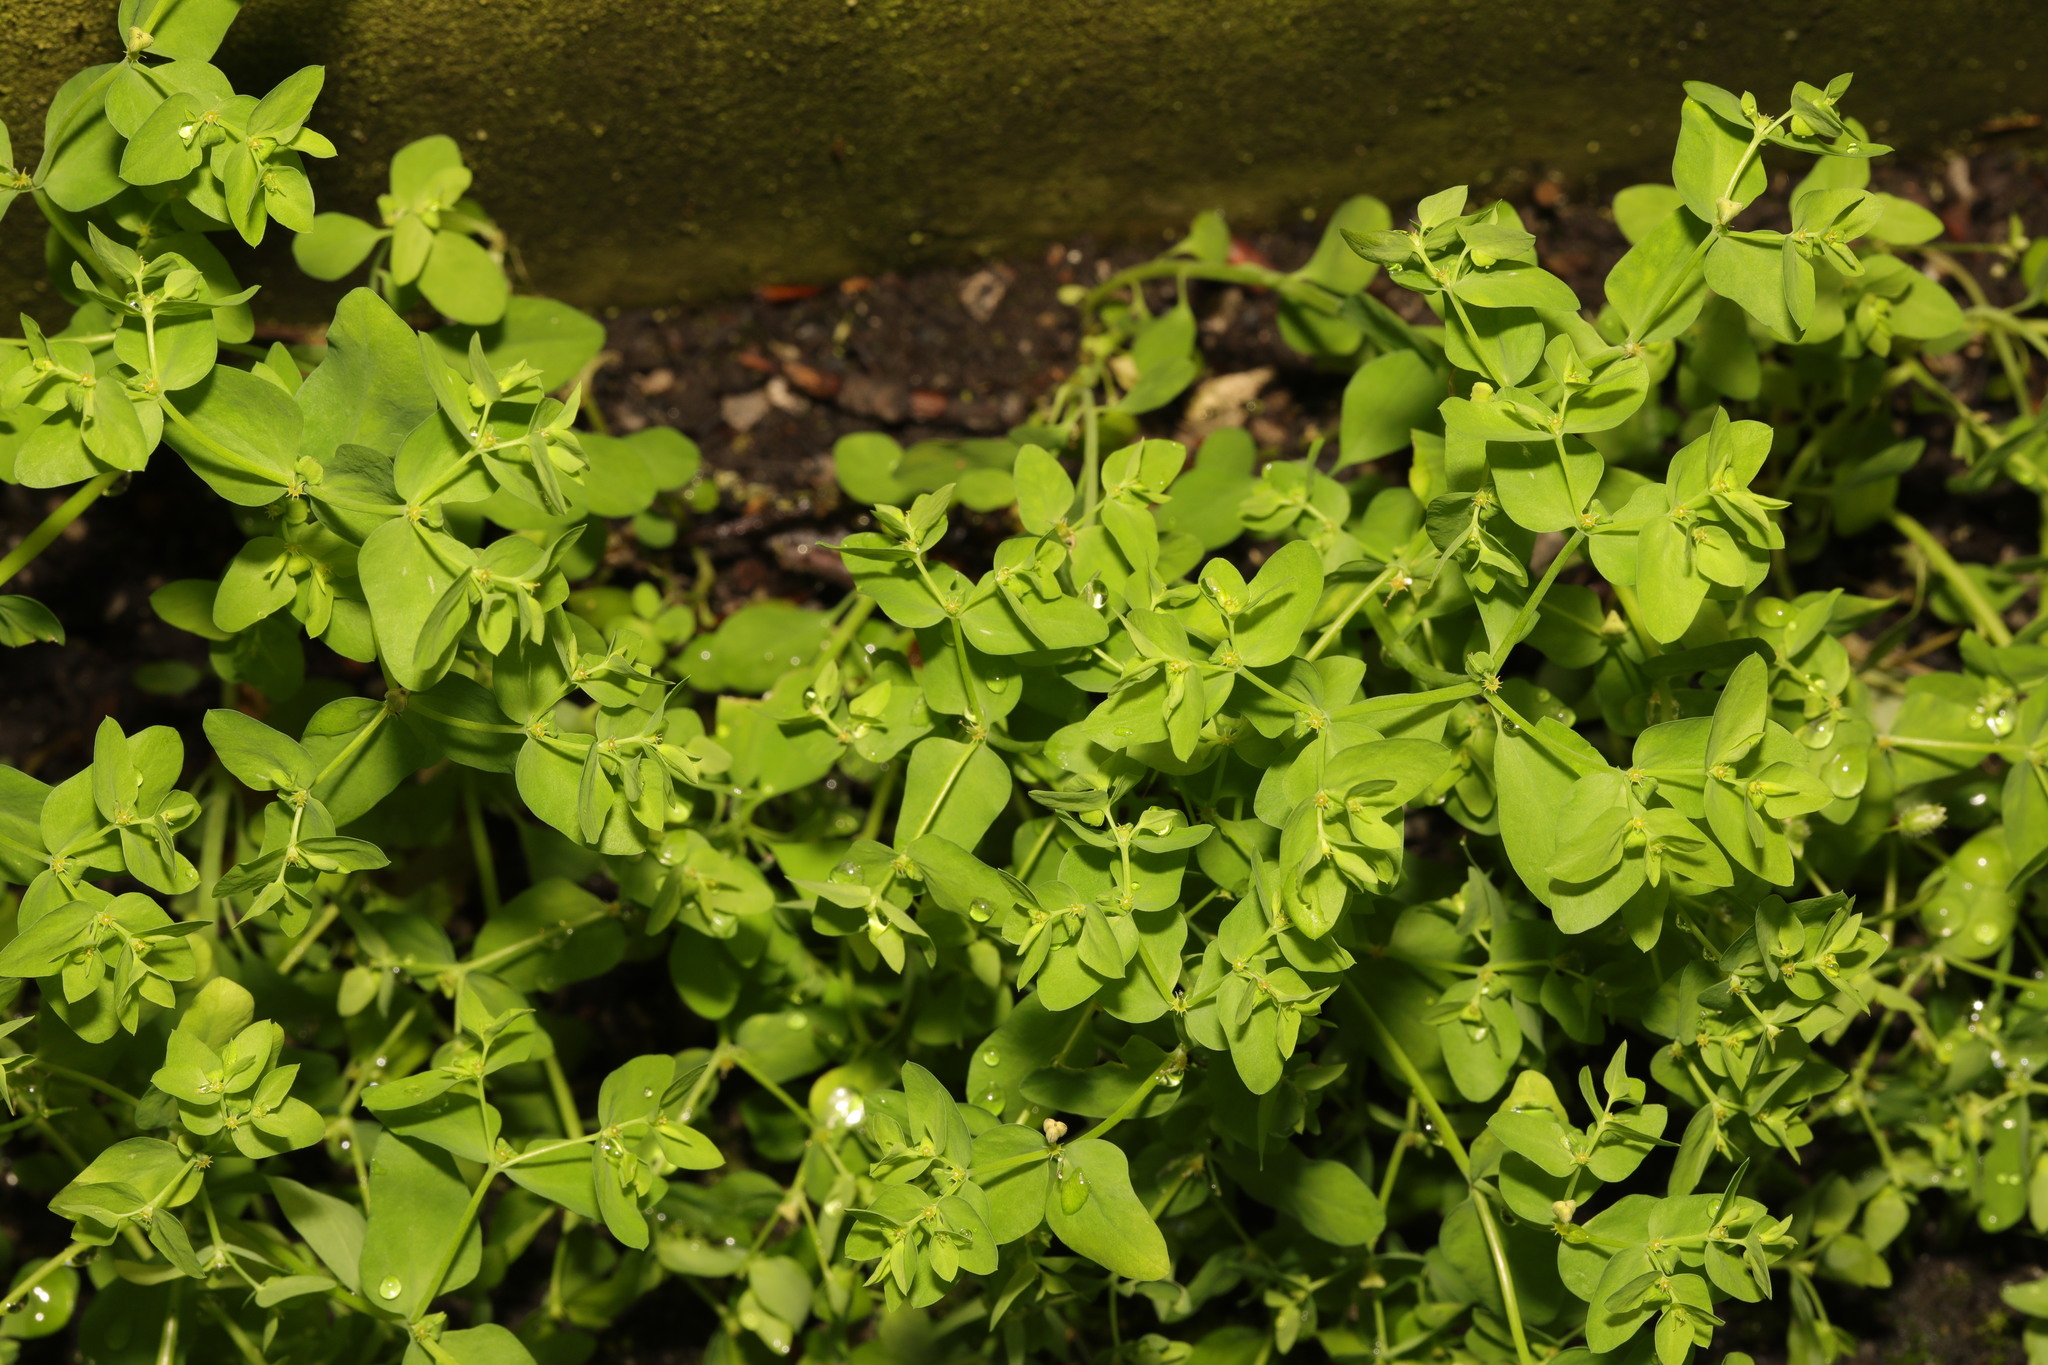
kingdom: Plantae
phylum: Tracheophyta
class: Magnoliopsida
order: Malpighiales
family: Euphorbiaceae
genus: Euphorbia
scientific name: Euphorbia peplus
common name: Petty spurge
